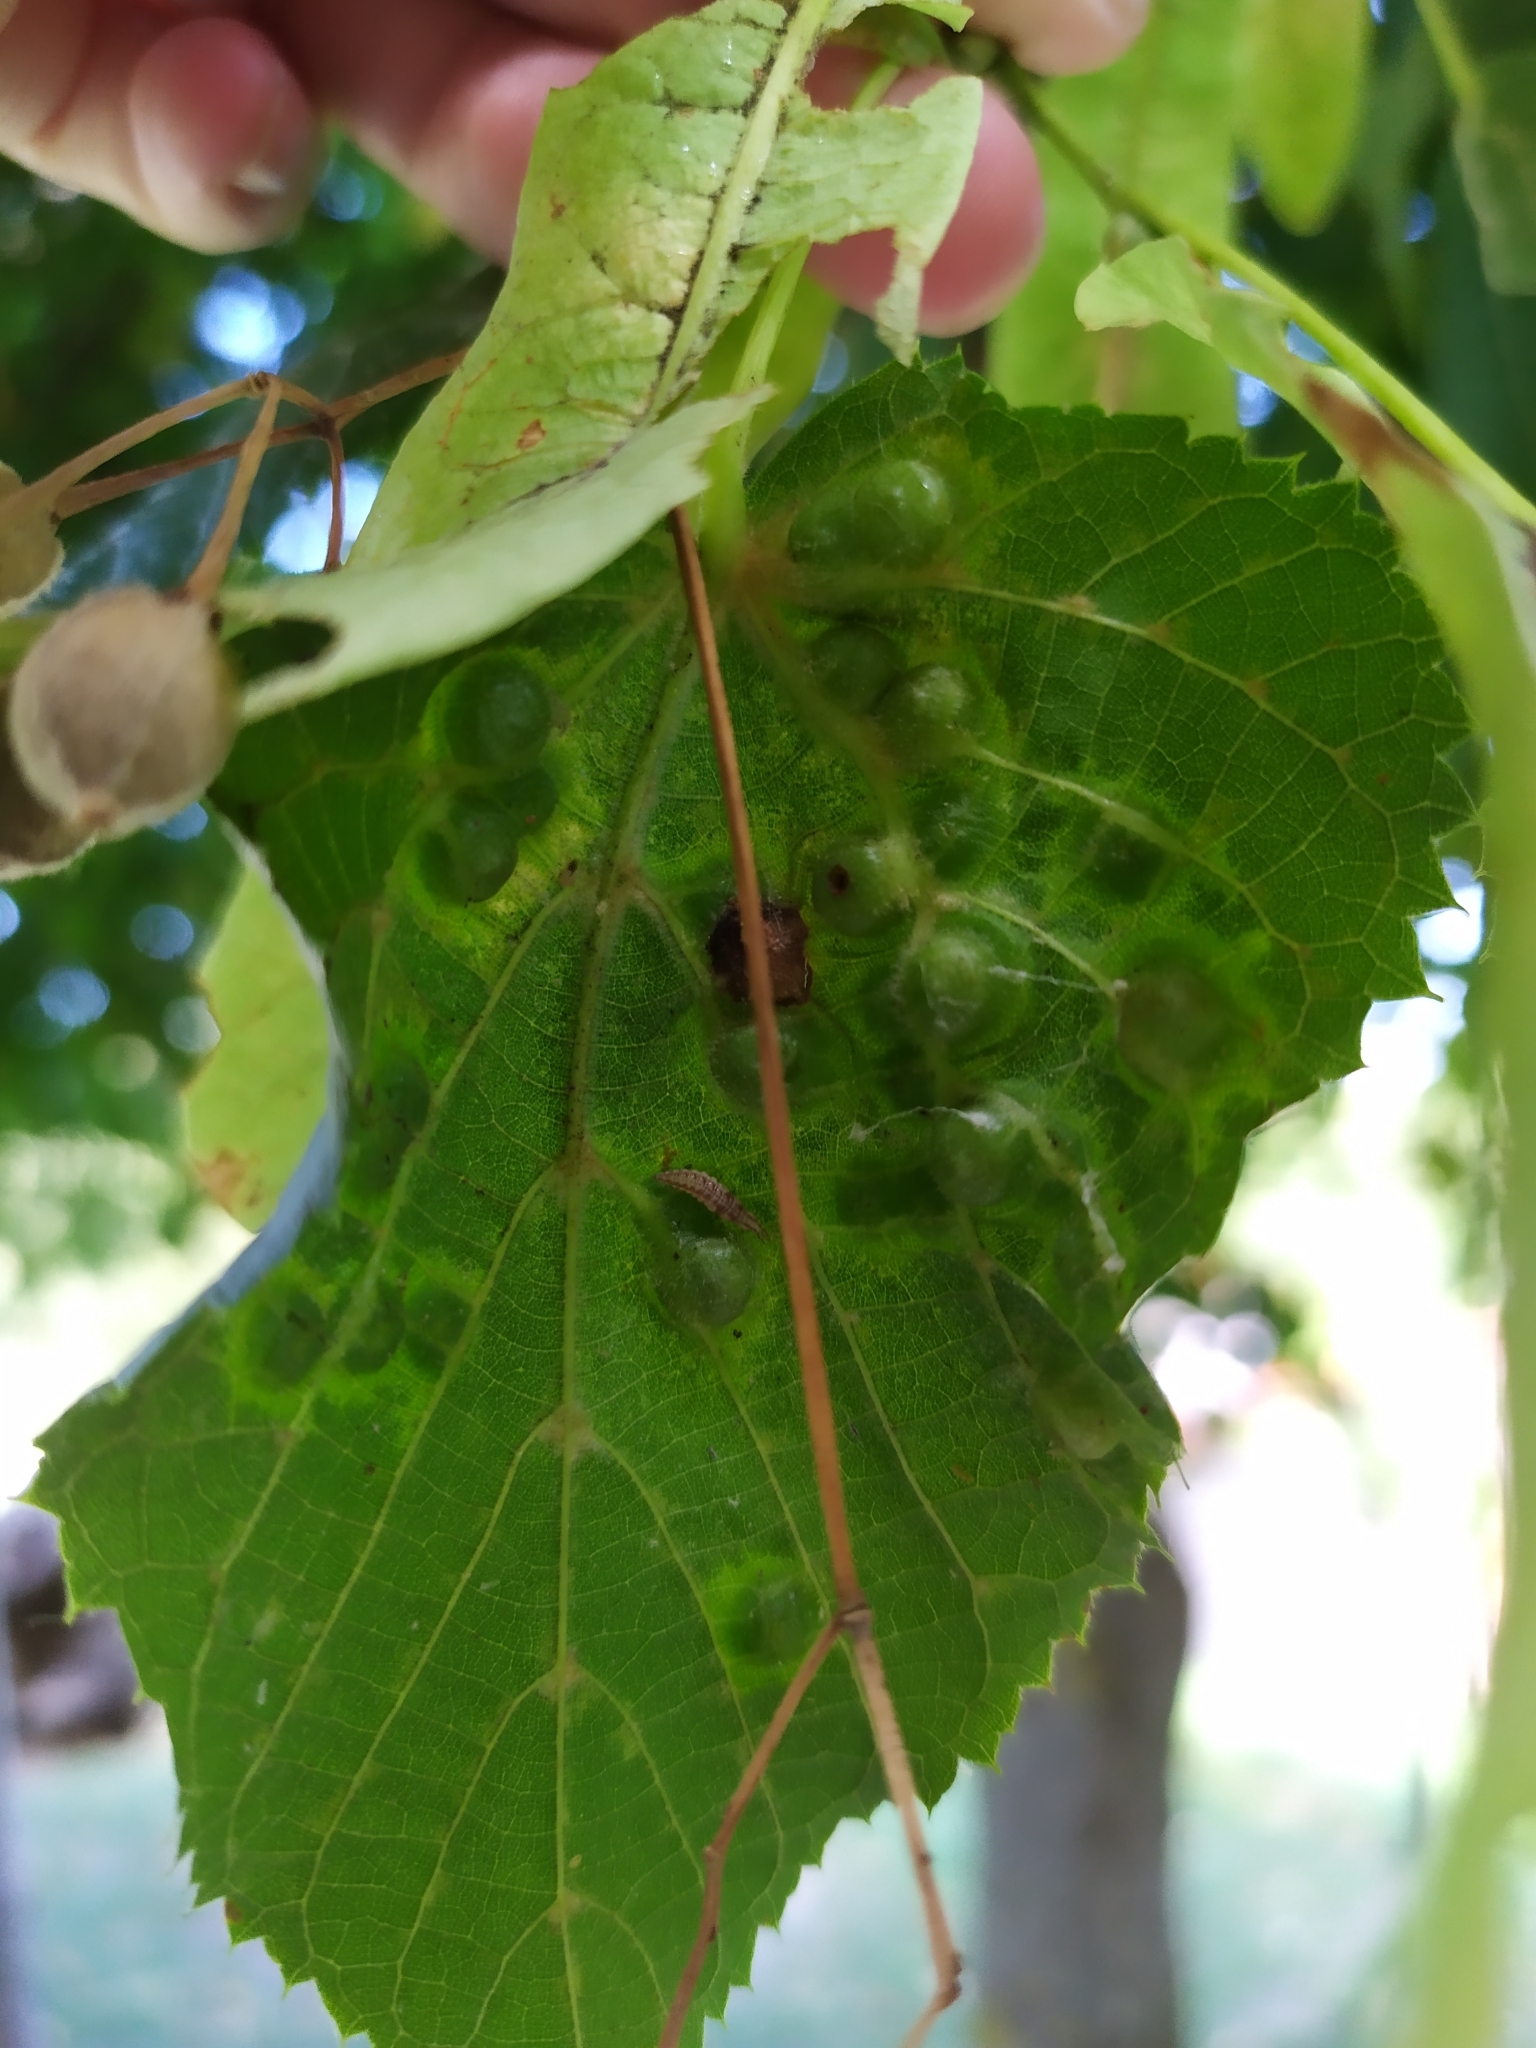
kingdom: Animalia
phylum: Arthropoda
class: Insecta
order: Diptera
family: Cecidomyiidae
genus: Didymomyia
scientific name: Didymomyia tiliacea
